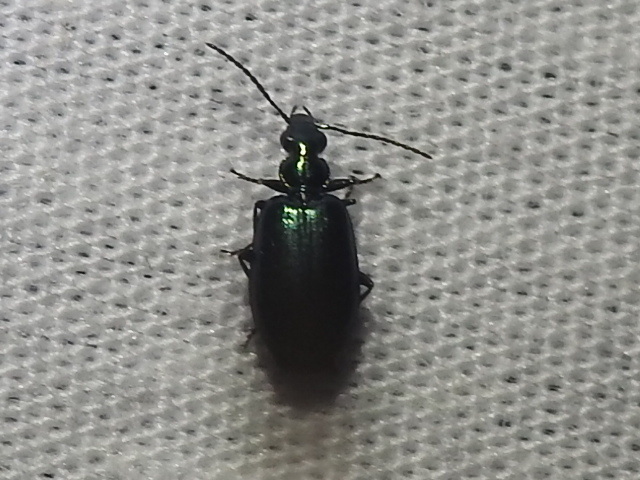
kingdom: Animalia
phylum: Arthropoda
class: Insecta
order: Coleoptera
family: Carabidae
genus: Lebia
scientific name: Lebia viridis
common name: Flower lebia beetle
